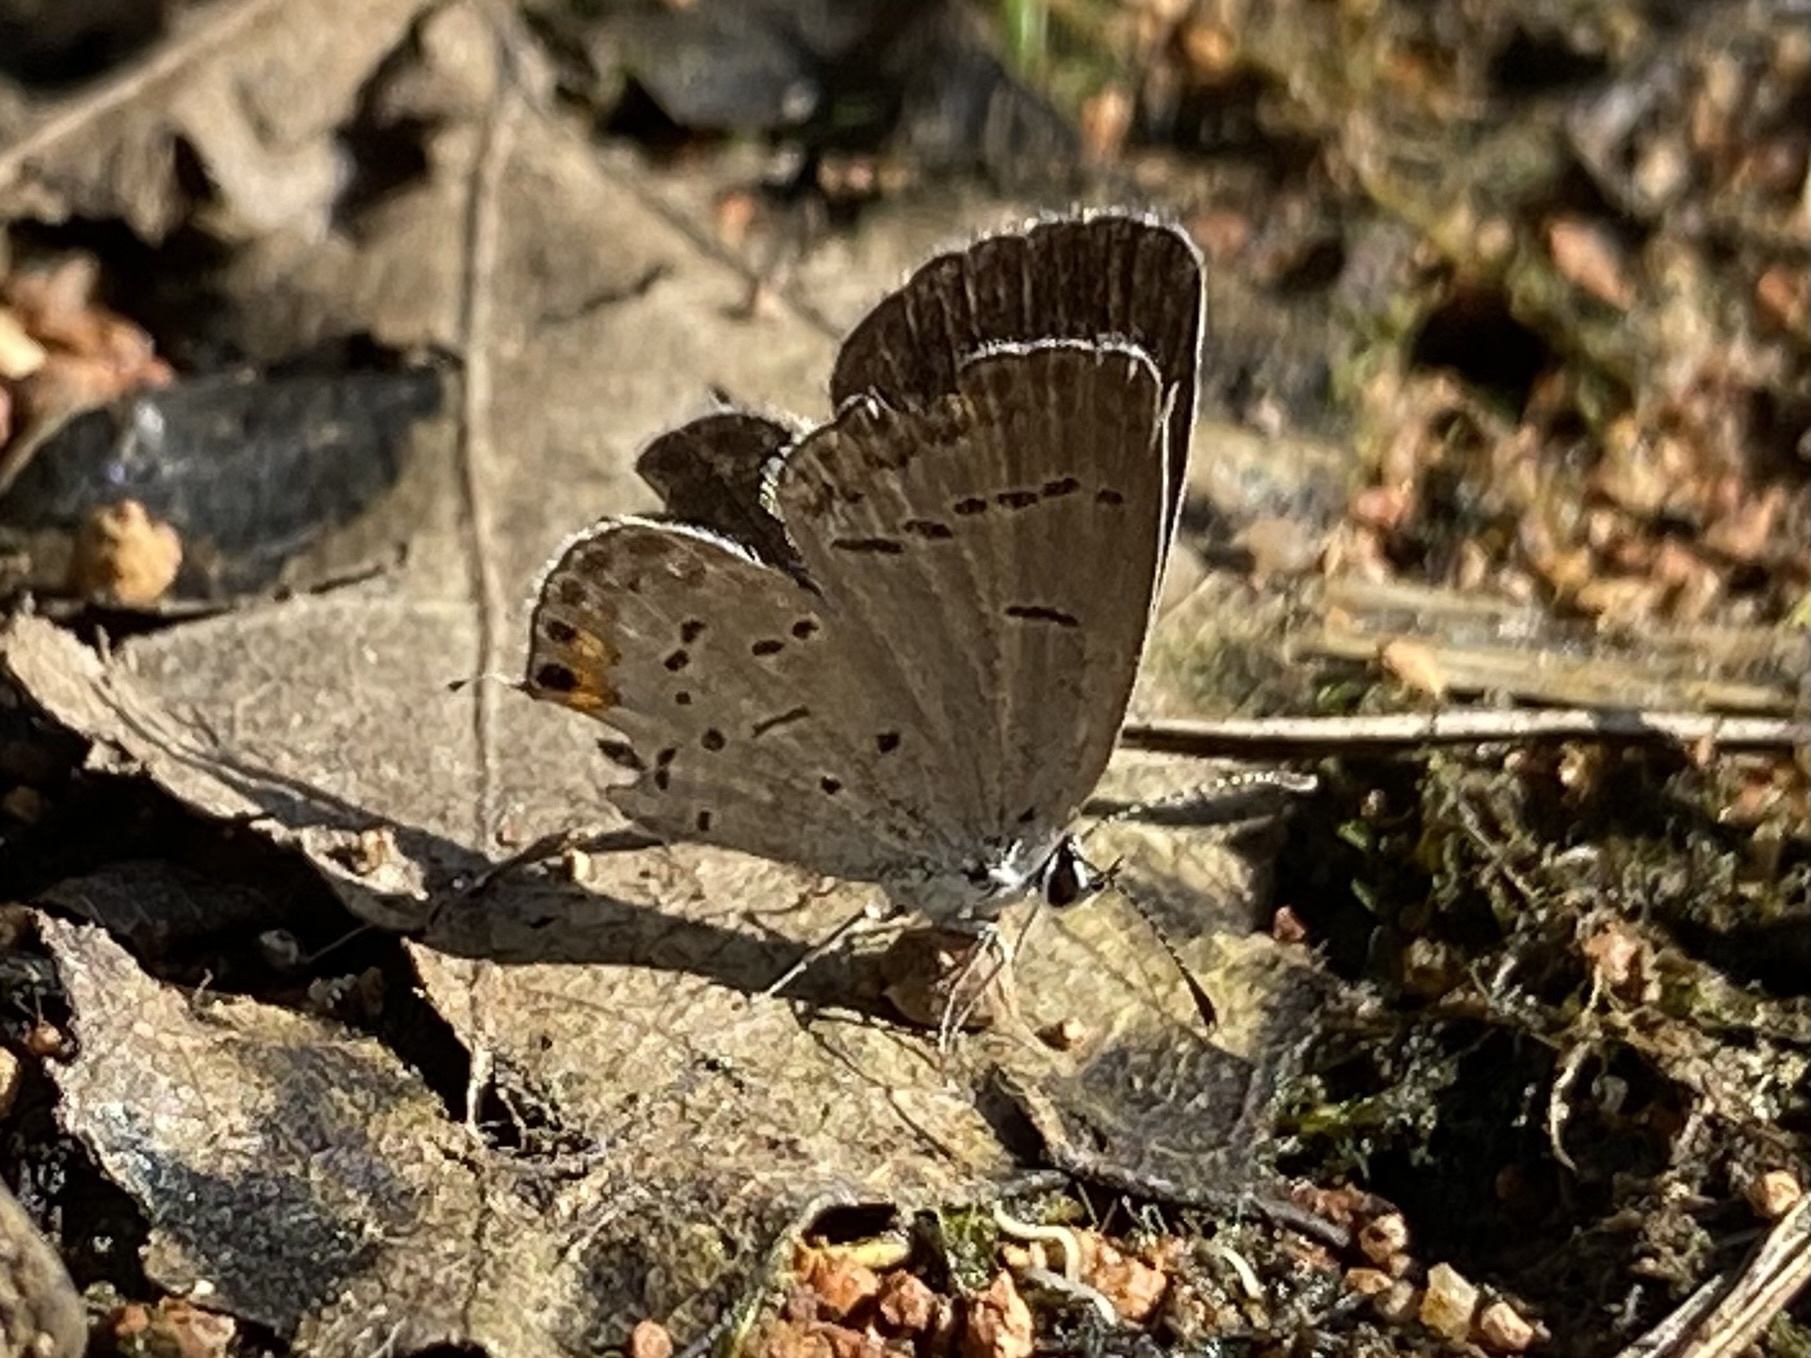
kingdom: Animalia
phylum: Arthropoda
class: Insecta
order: Lepidoptera
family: Lycaenidae
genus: Elkalyce
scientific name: Elkalyce comyntas
